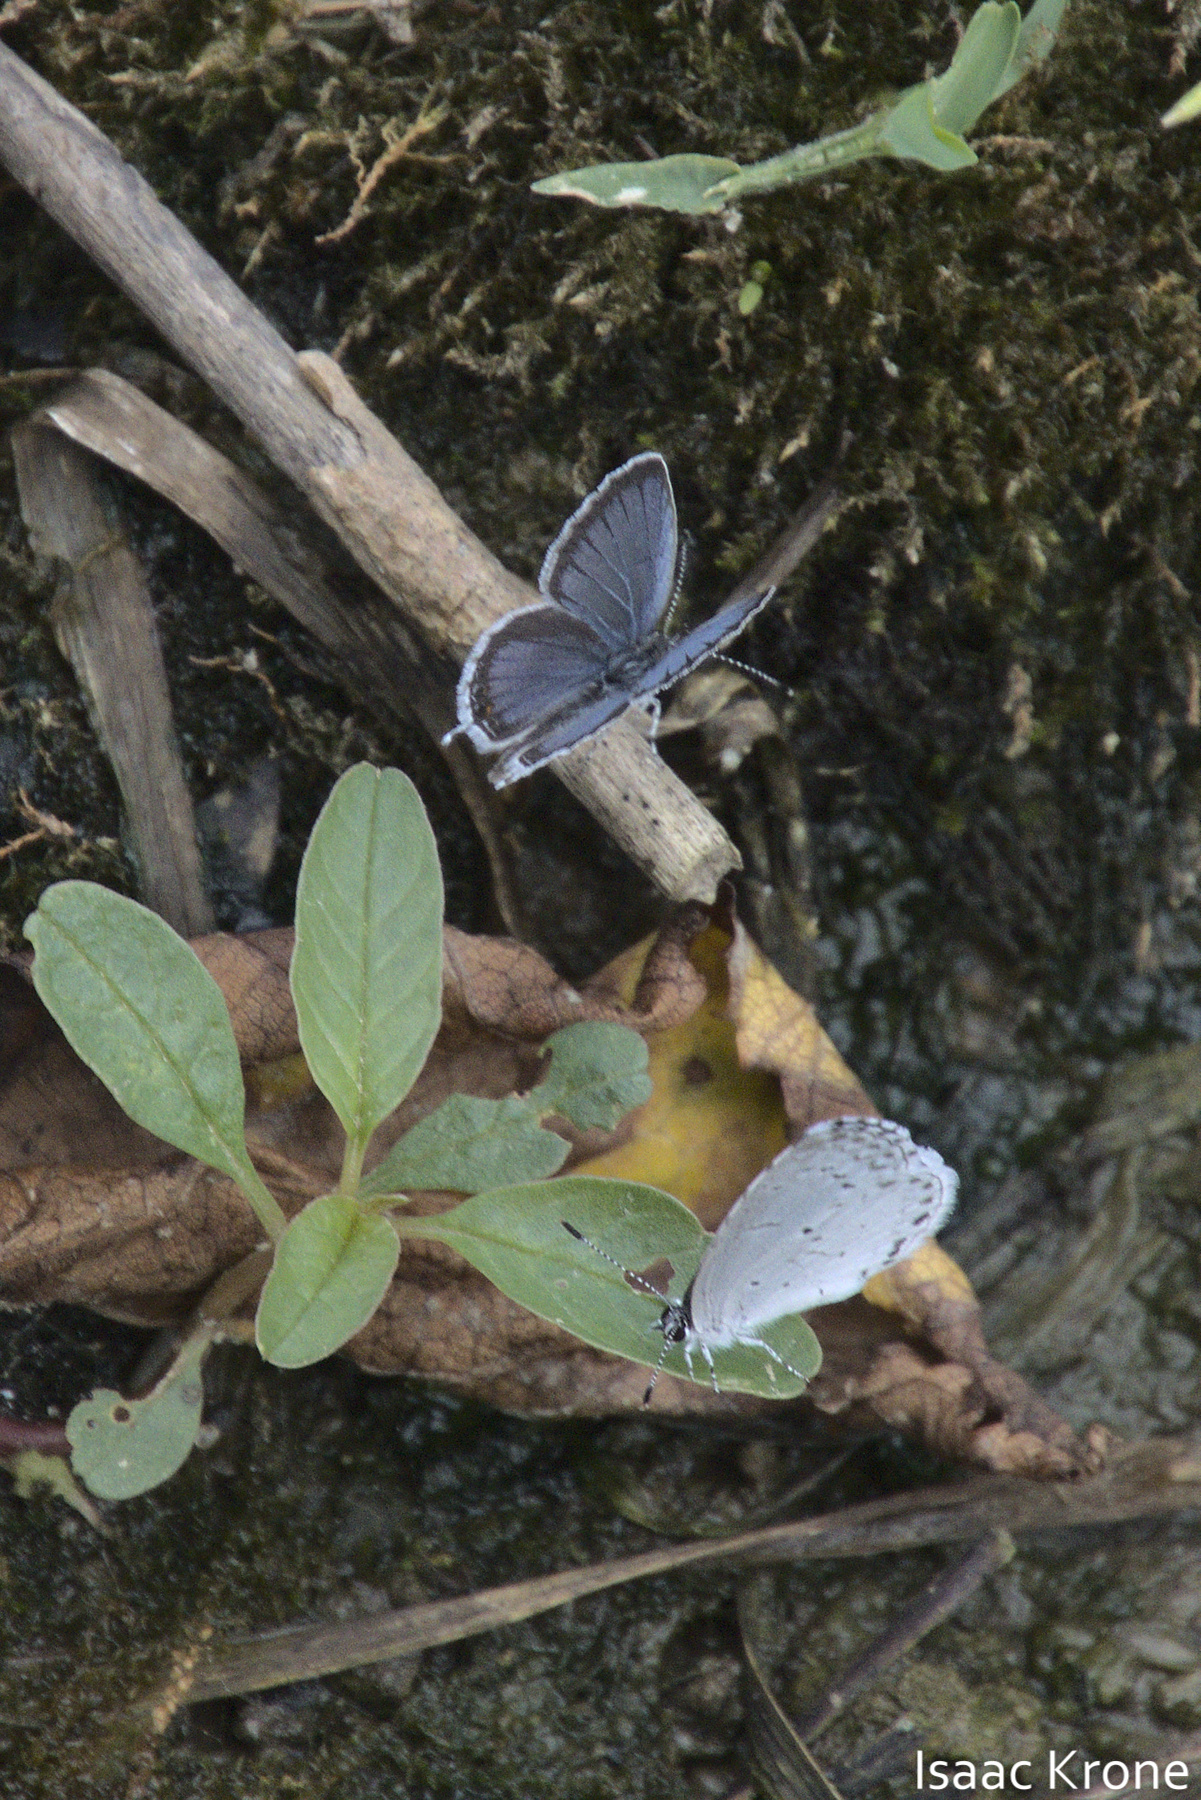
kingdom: Animalia
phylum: Arthropoda
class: Insecta
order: Lepidoptera
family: Lycaenidae
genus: Elkalyce
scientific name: Elkalyce comyntas
